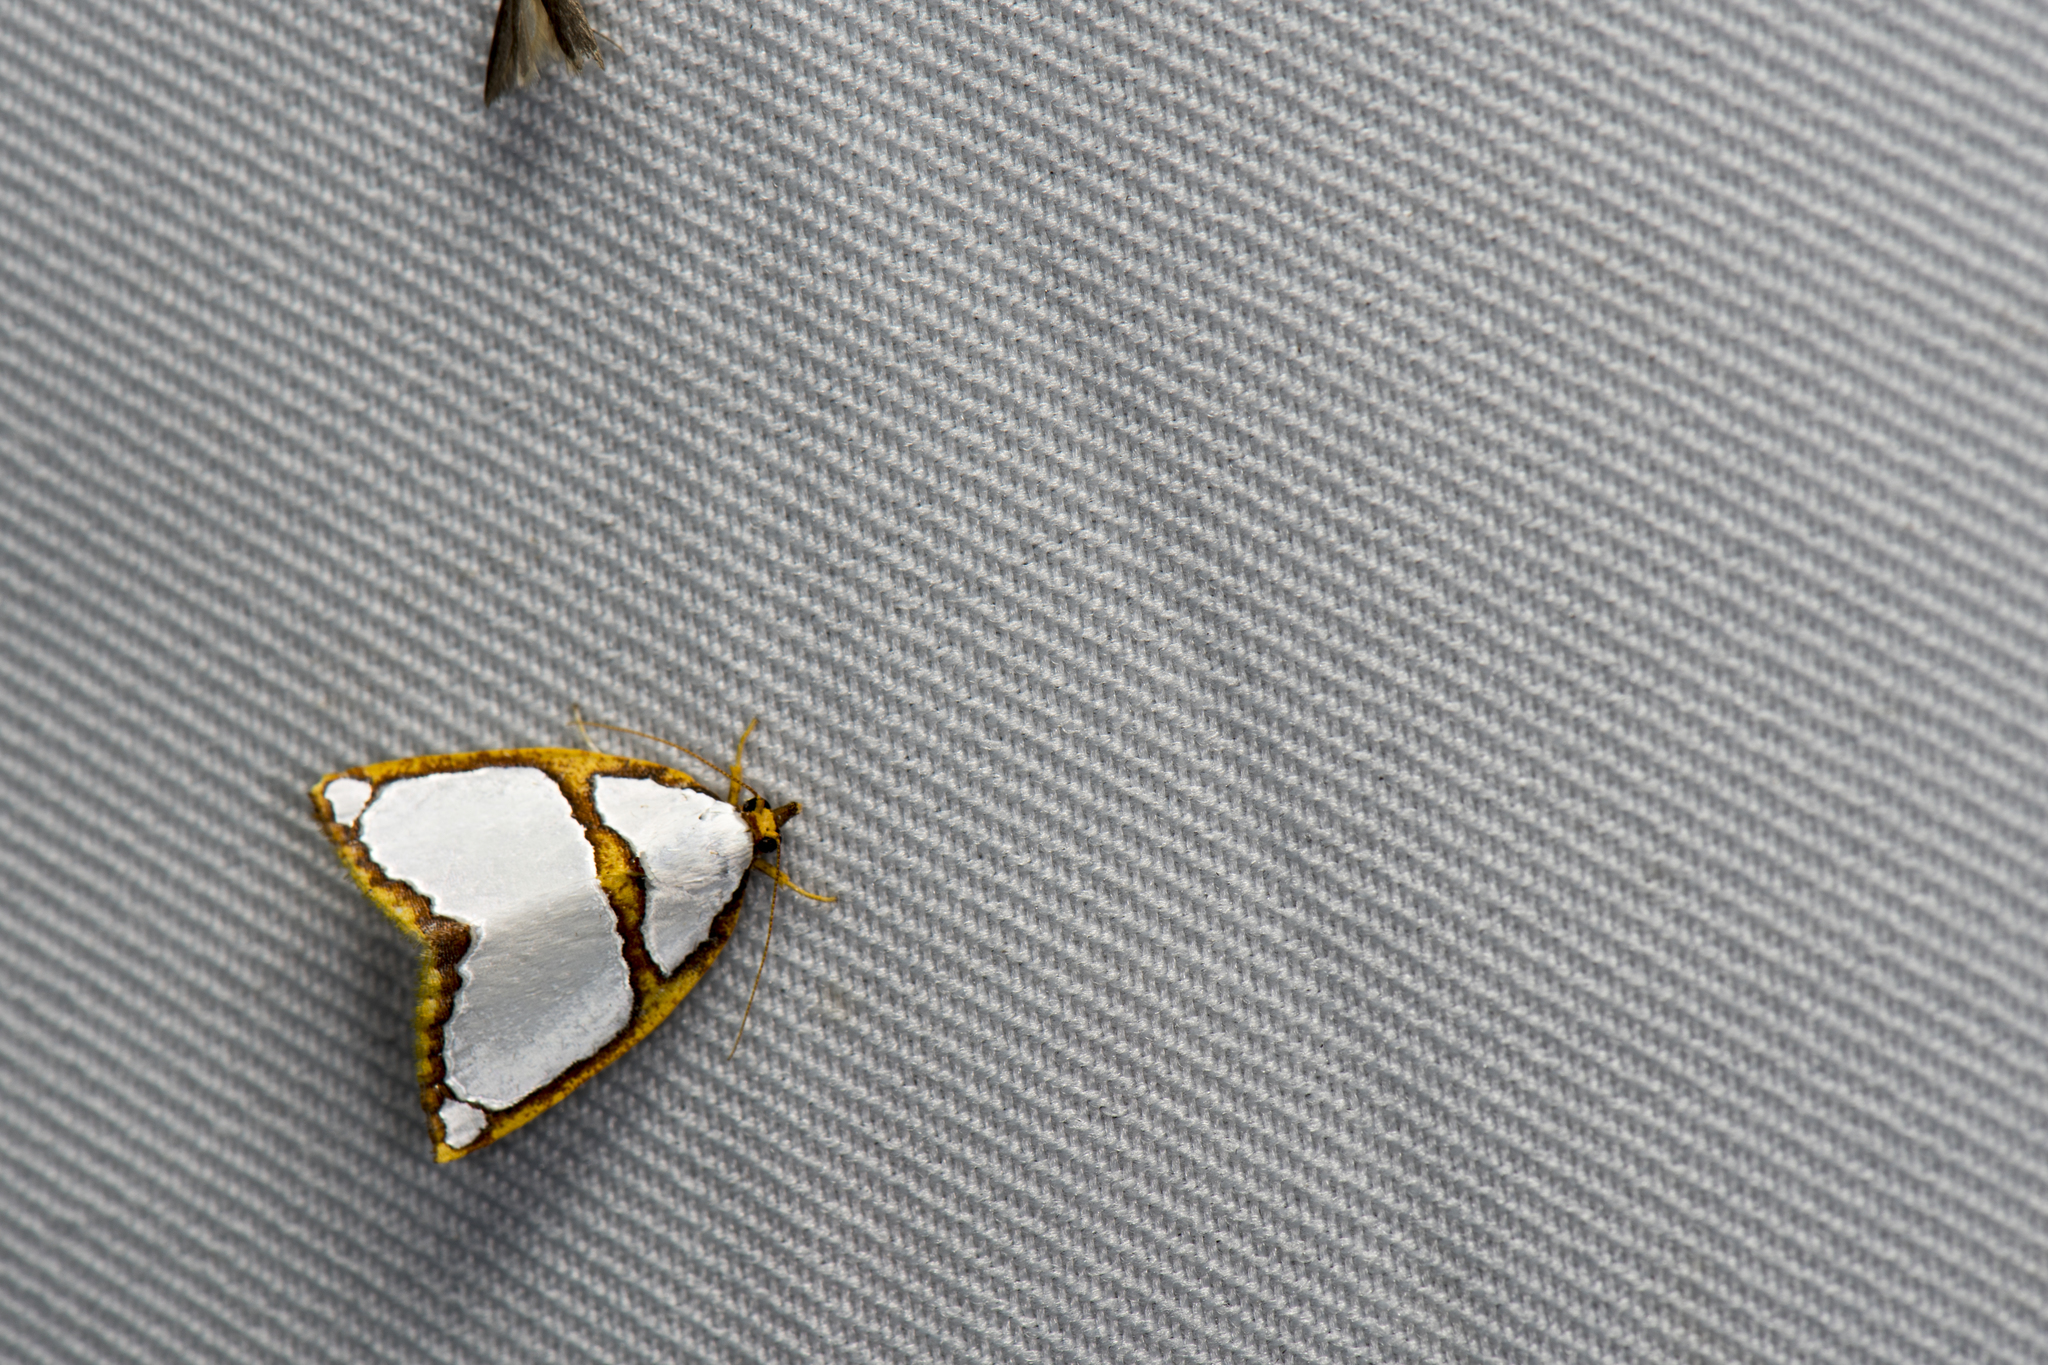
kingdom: Animalia
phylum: Arthropoda
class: Insecta
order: Lepidoptera
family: Nolidae
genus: Titulcia
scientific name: Titulcia confictella
